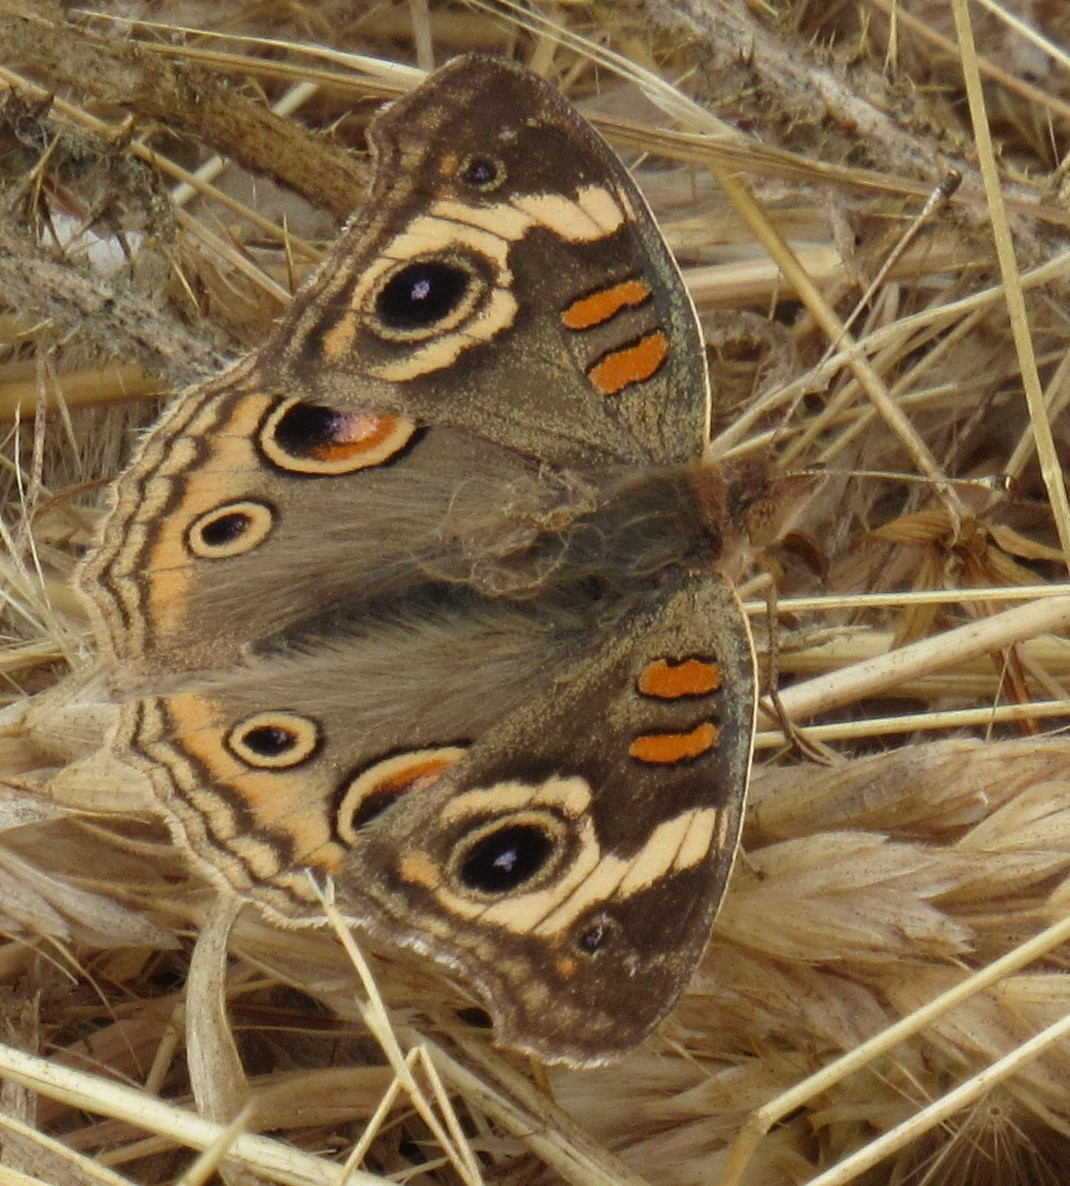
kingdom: Animalia
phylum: Arthropoda
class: Insecta
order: Lepidoptera
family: Nymphalidae
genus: Junonia
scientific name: Junonia grisea
